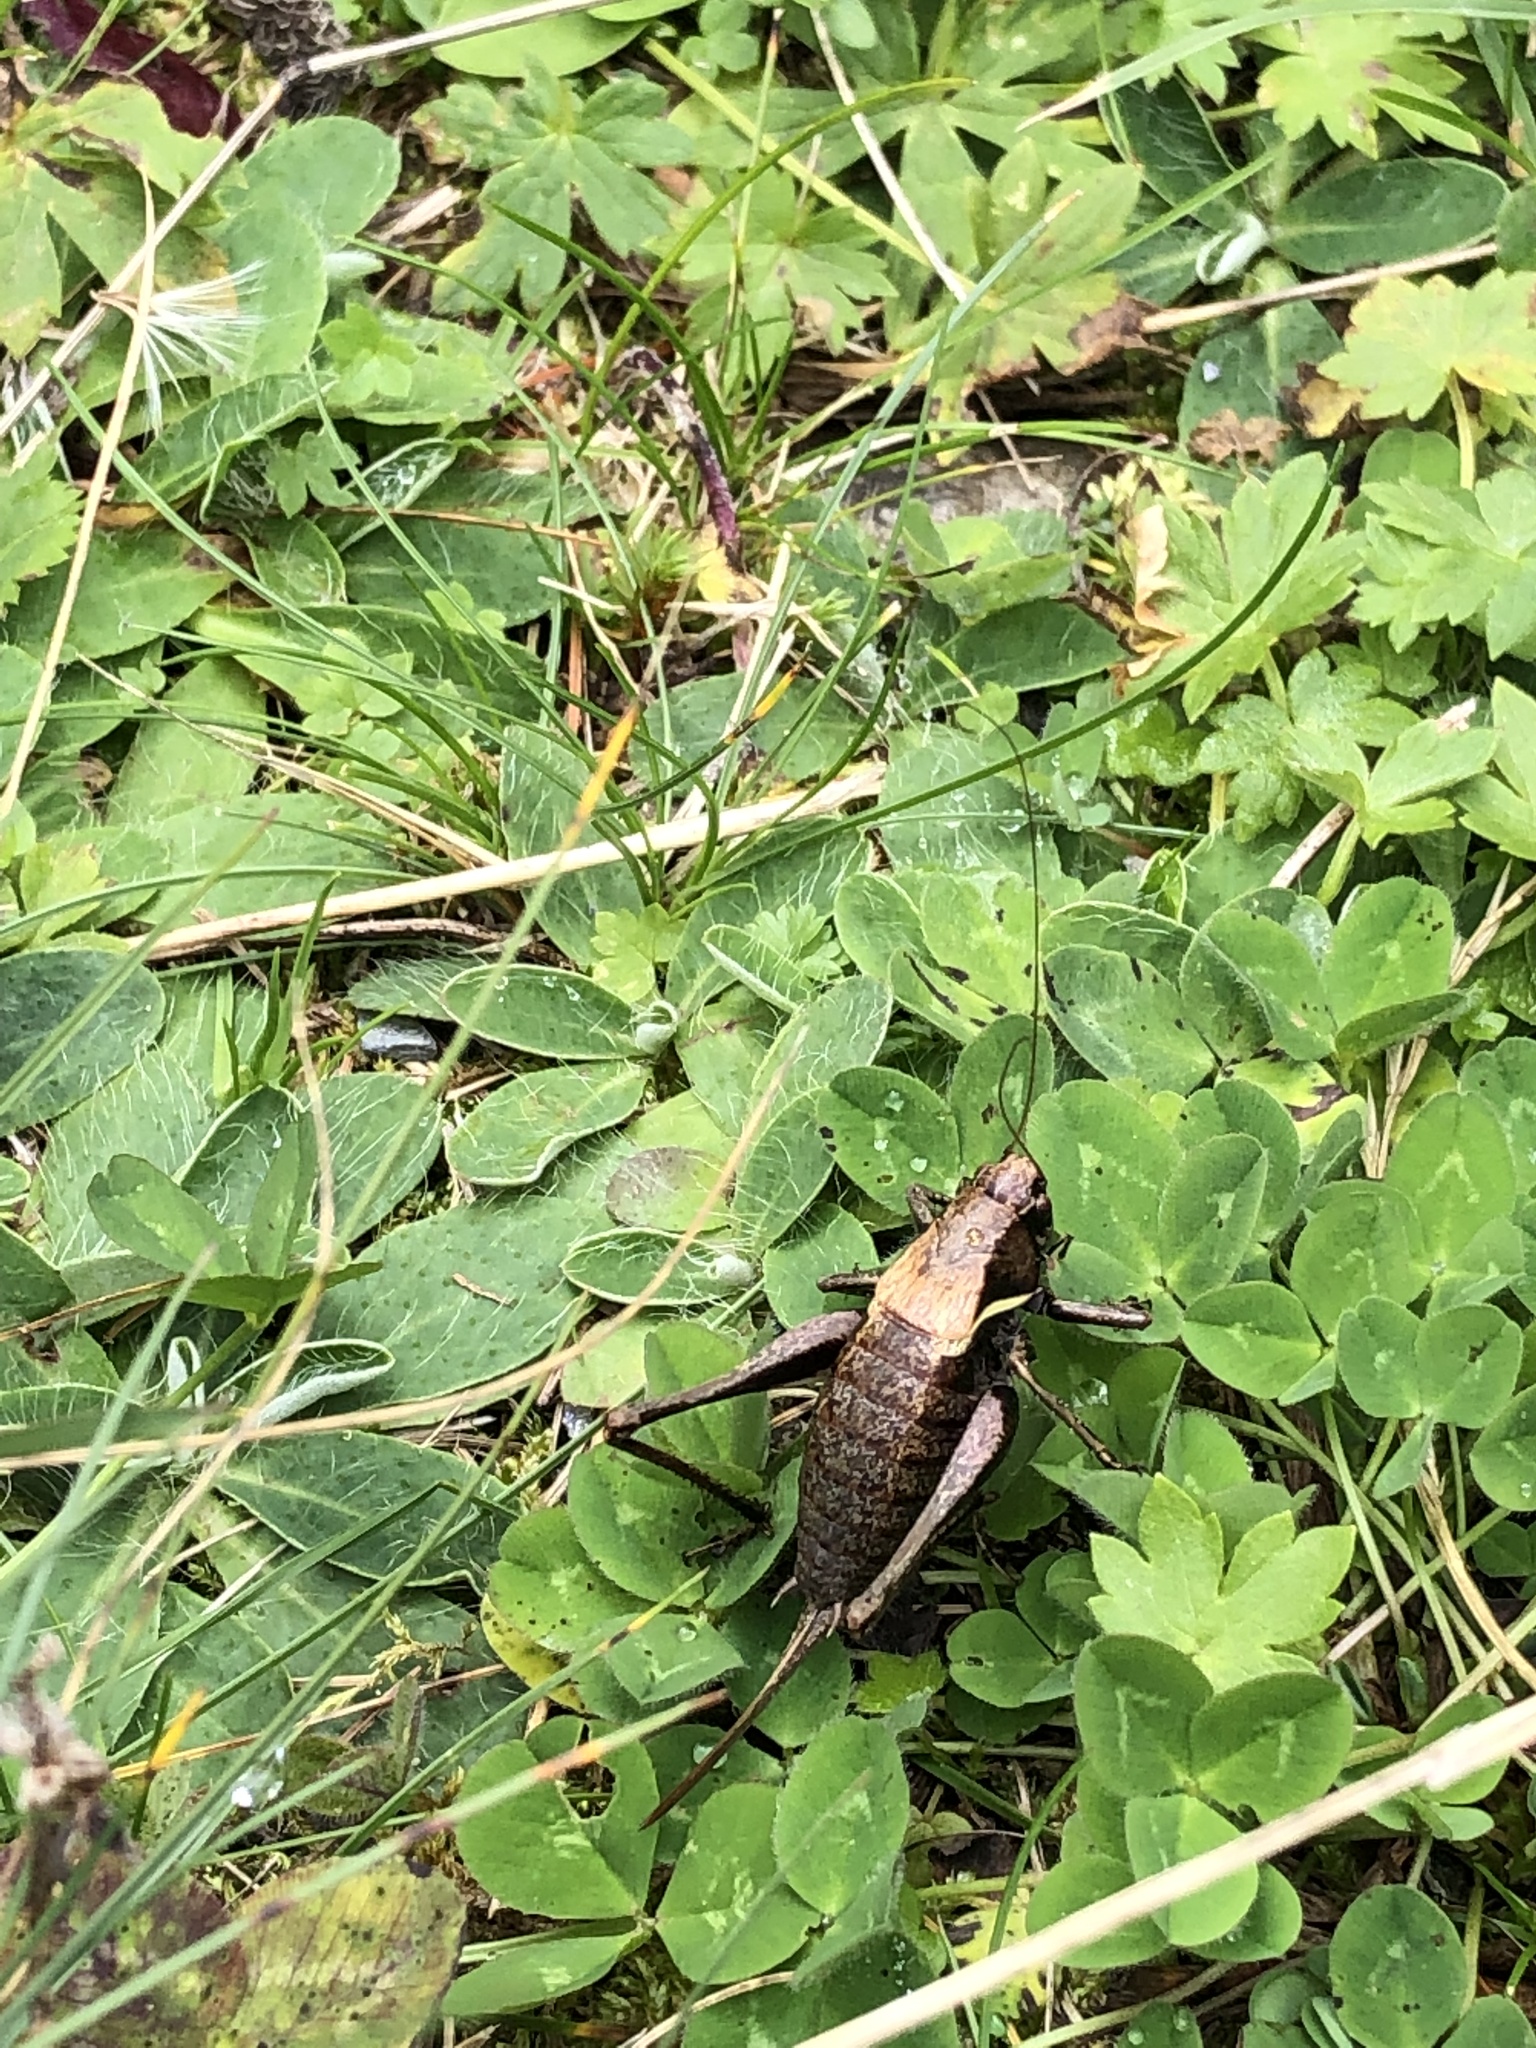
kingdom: Animalia
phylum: Arthropoda
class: Insecta
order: Orthoptera
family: Tettigoniidae
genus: Pholidoptera
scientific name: Pholidoptera aptera
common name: Alpine dark bush-cricket
